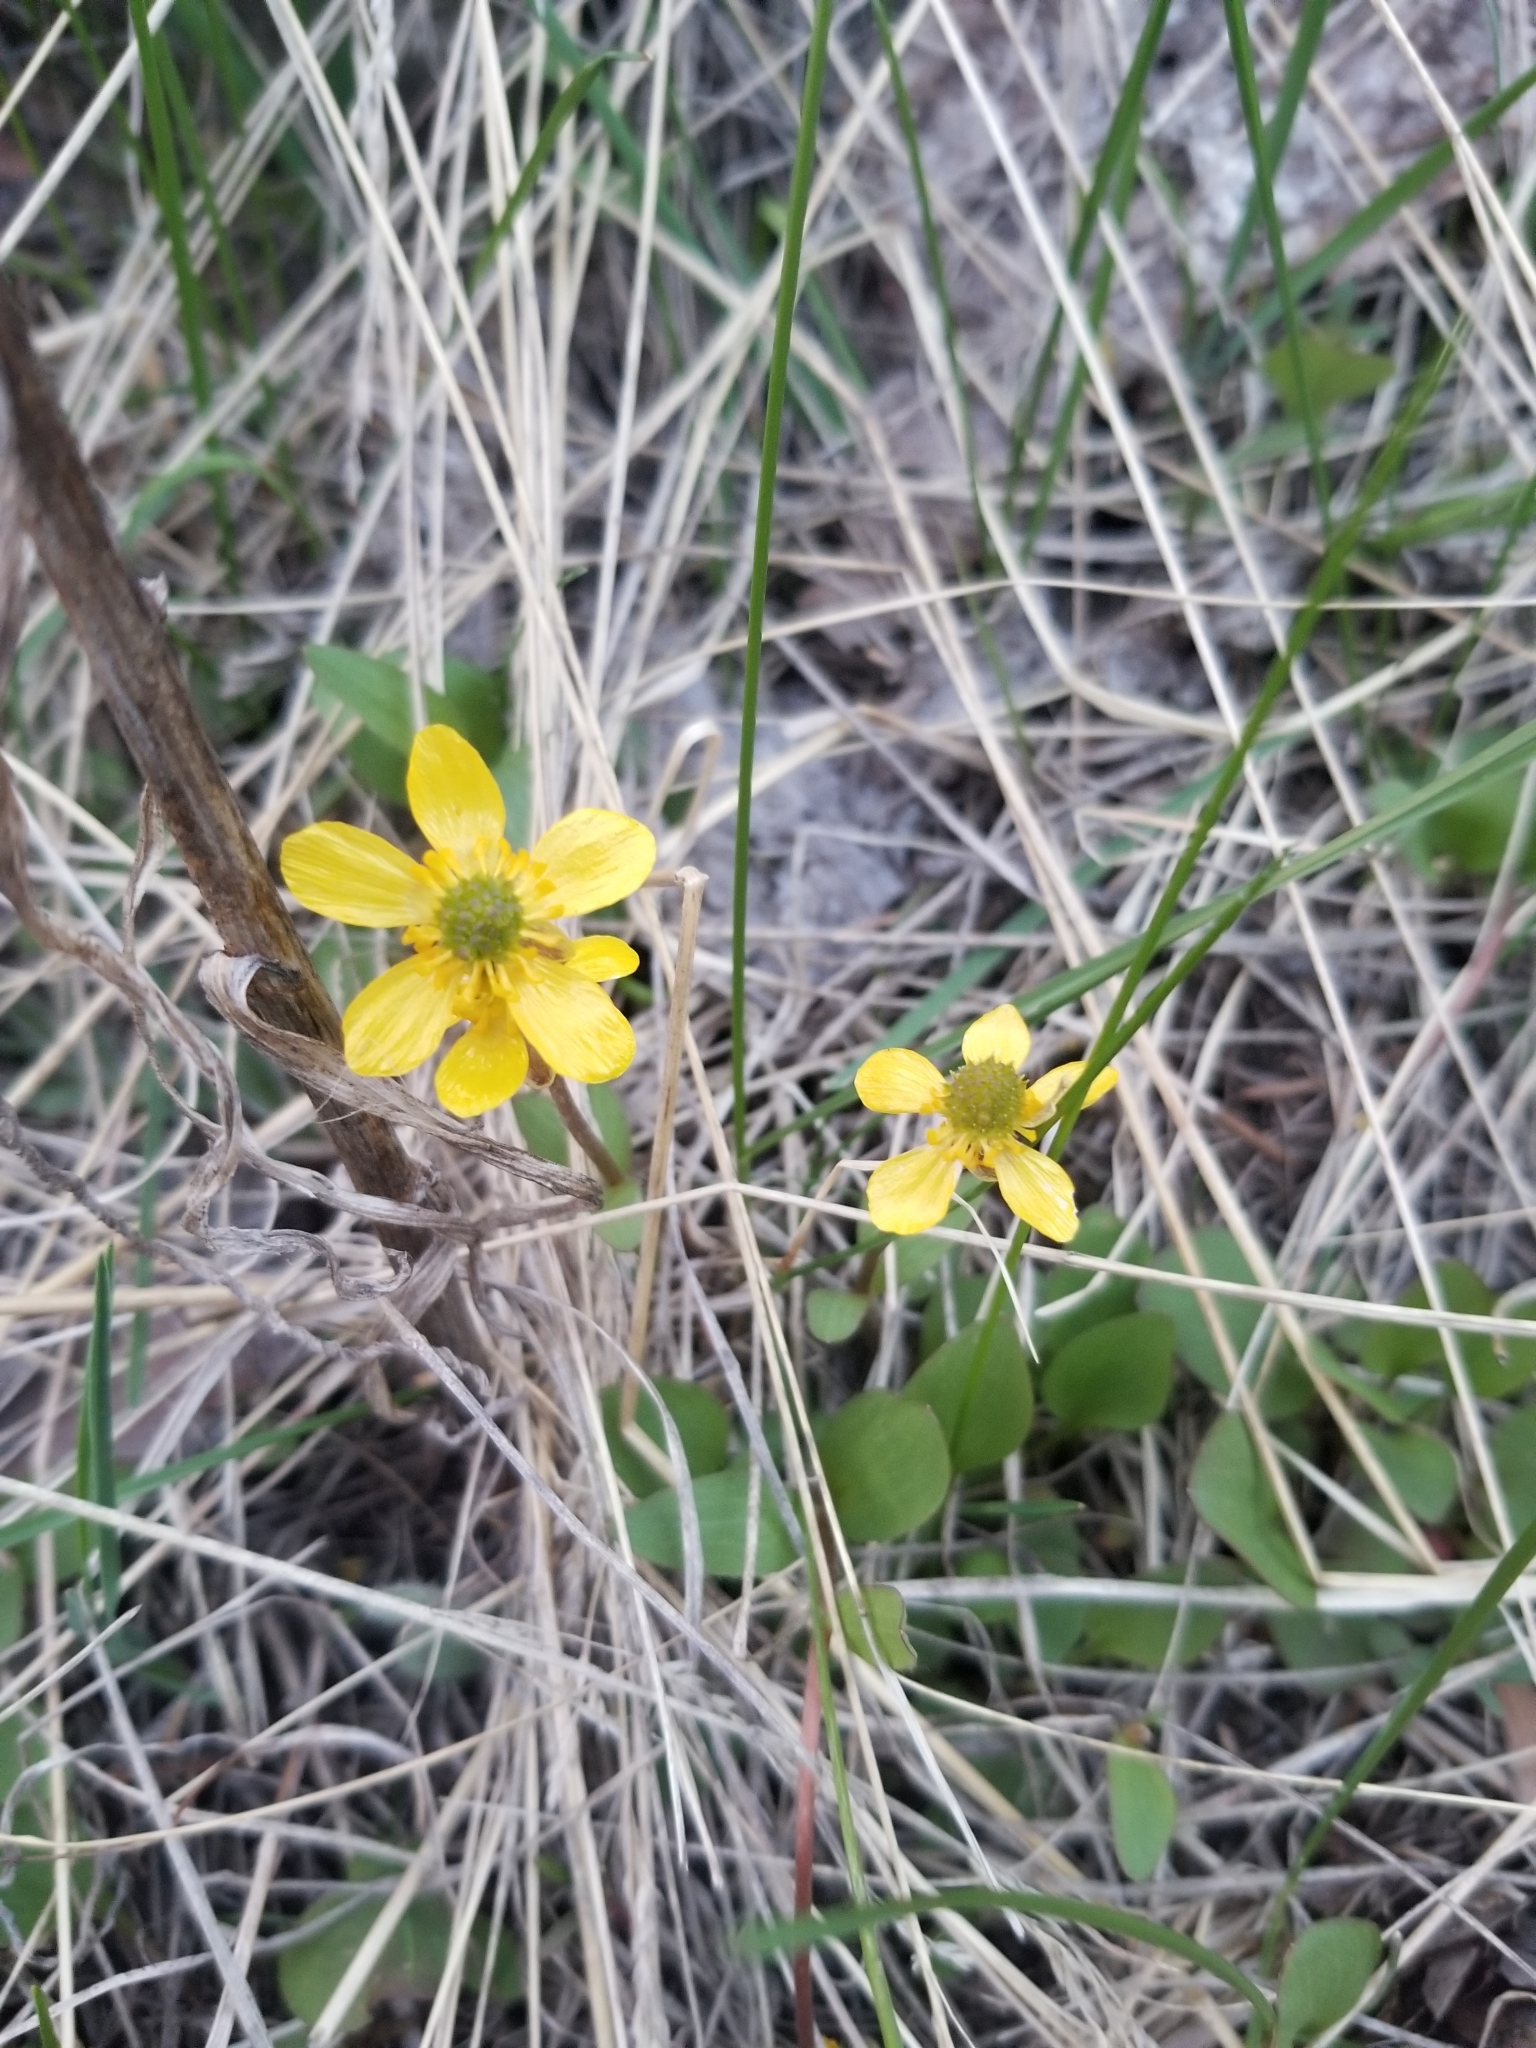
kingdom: Plantae
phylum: Tracheophyta
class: Magnoliopsida
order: Ranunculales
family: Ranunculaceae
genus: Ranunculus
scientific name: Ranunculus glaberrimus
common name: Sagebrush buttercup
